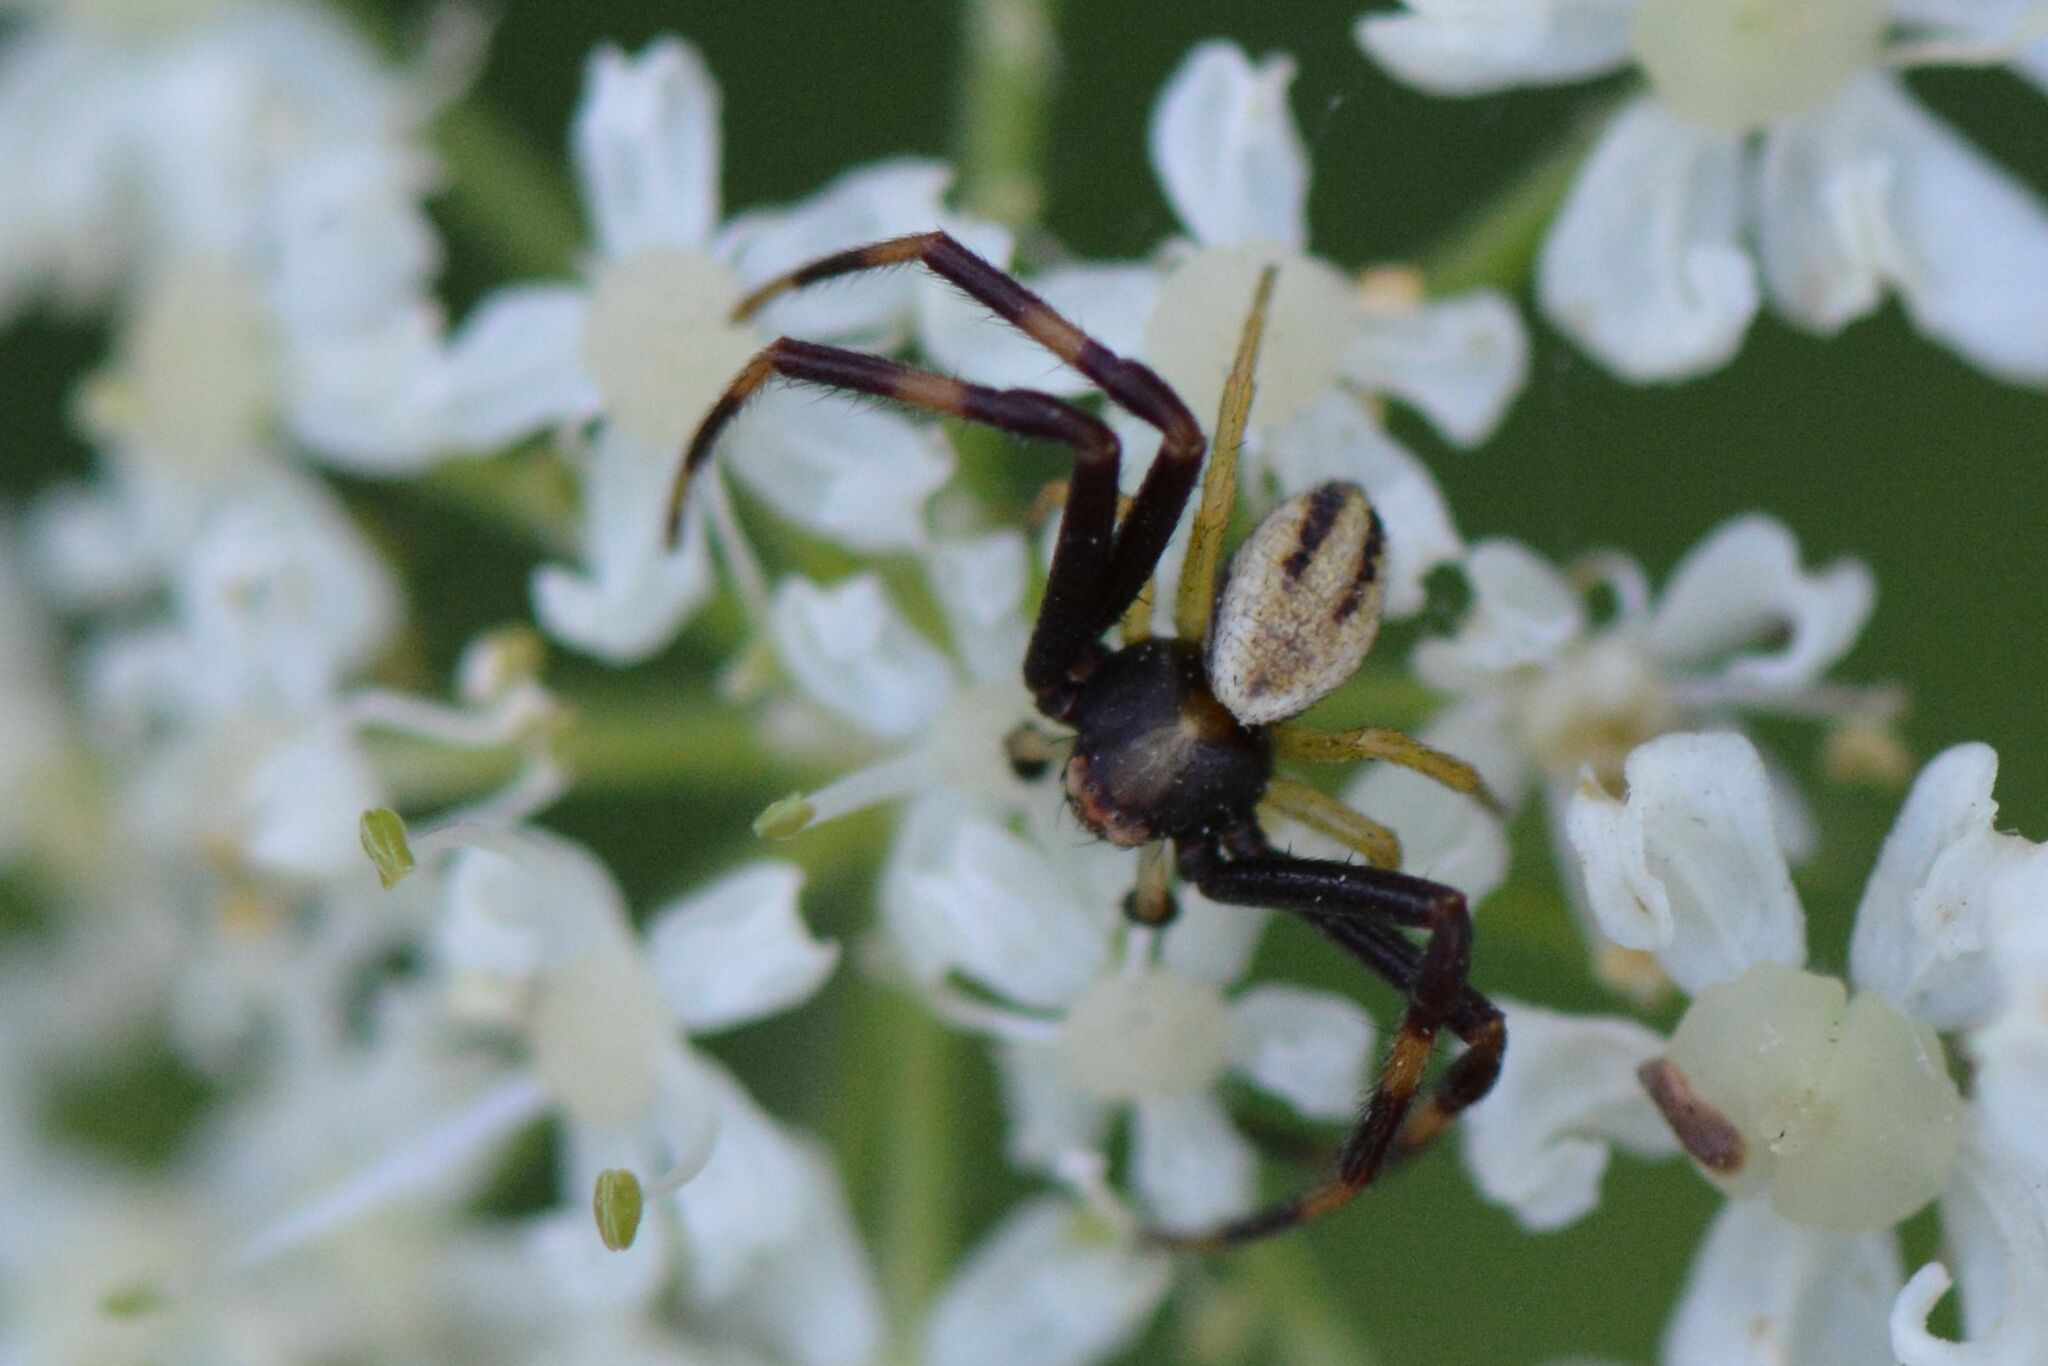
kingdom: Animalia
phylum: Arthropoda
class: Arachnida
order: Araneae
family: Thomisidae
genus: Misumena
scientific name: Misumena vatia
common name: Goldenrod crab spider
